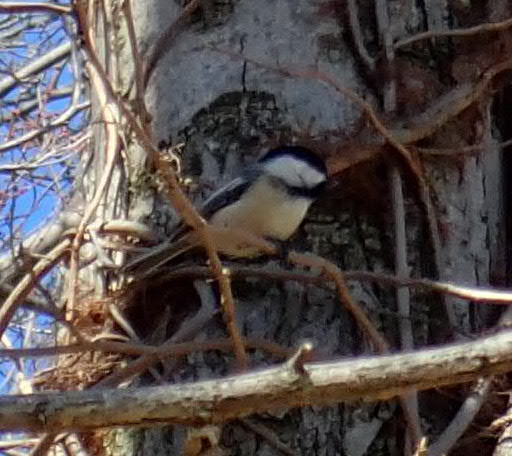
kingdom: Animalia
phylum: Chordata
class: Aves
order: Passeriformes
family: Paridae
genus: Poecile
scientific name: Poecile atricapillus
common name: Black-capped chickadee
